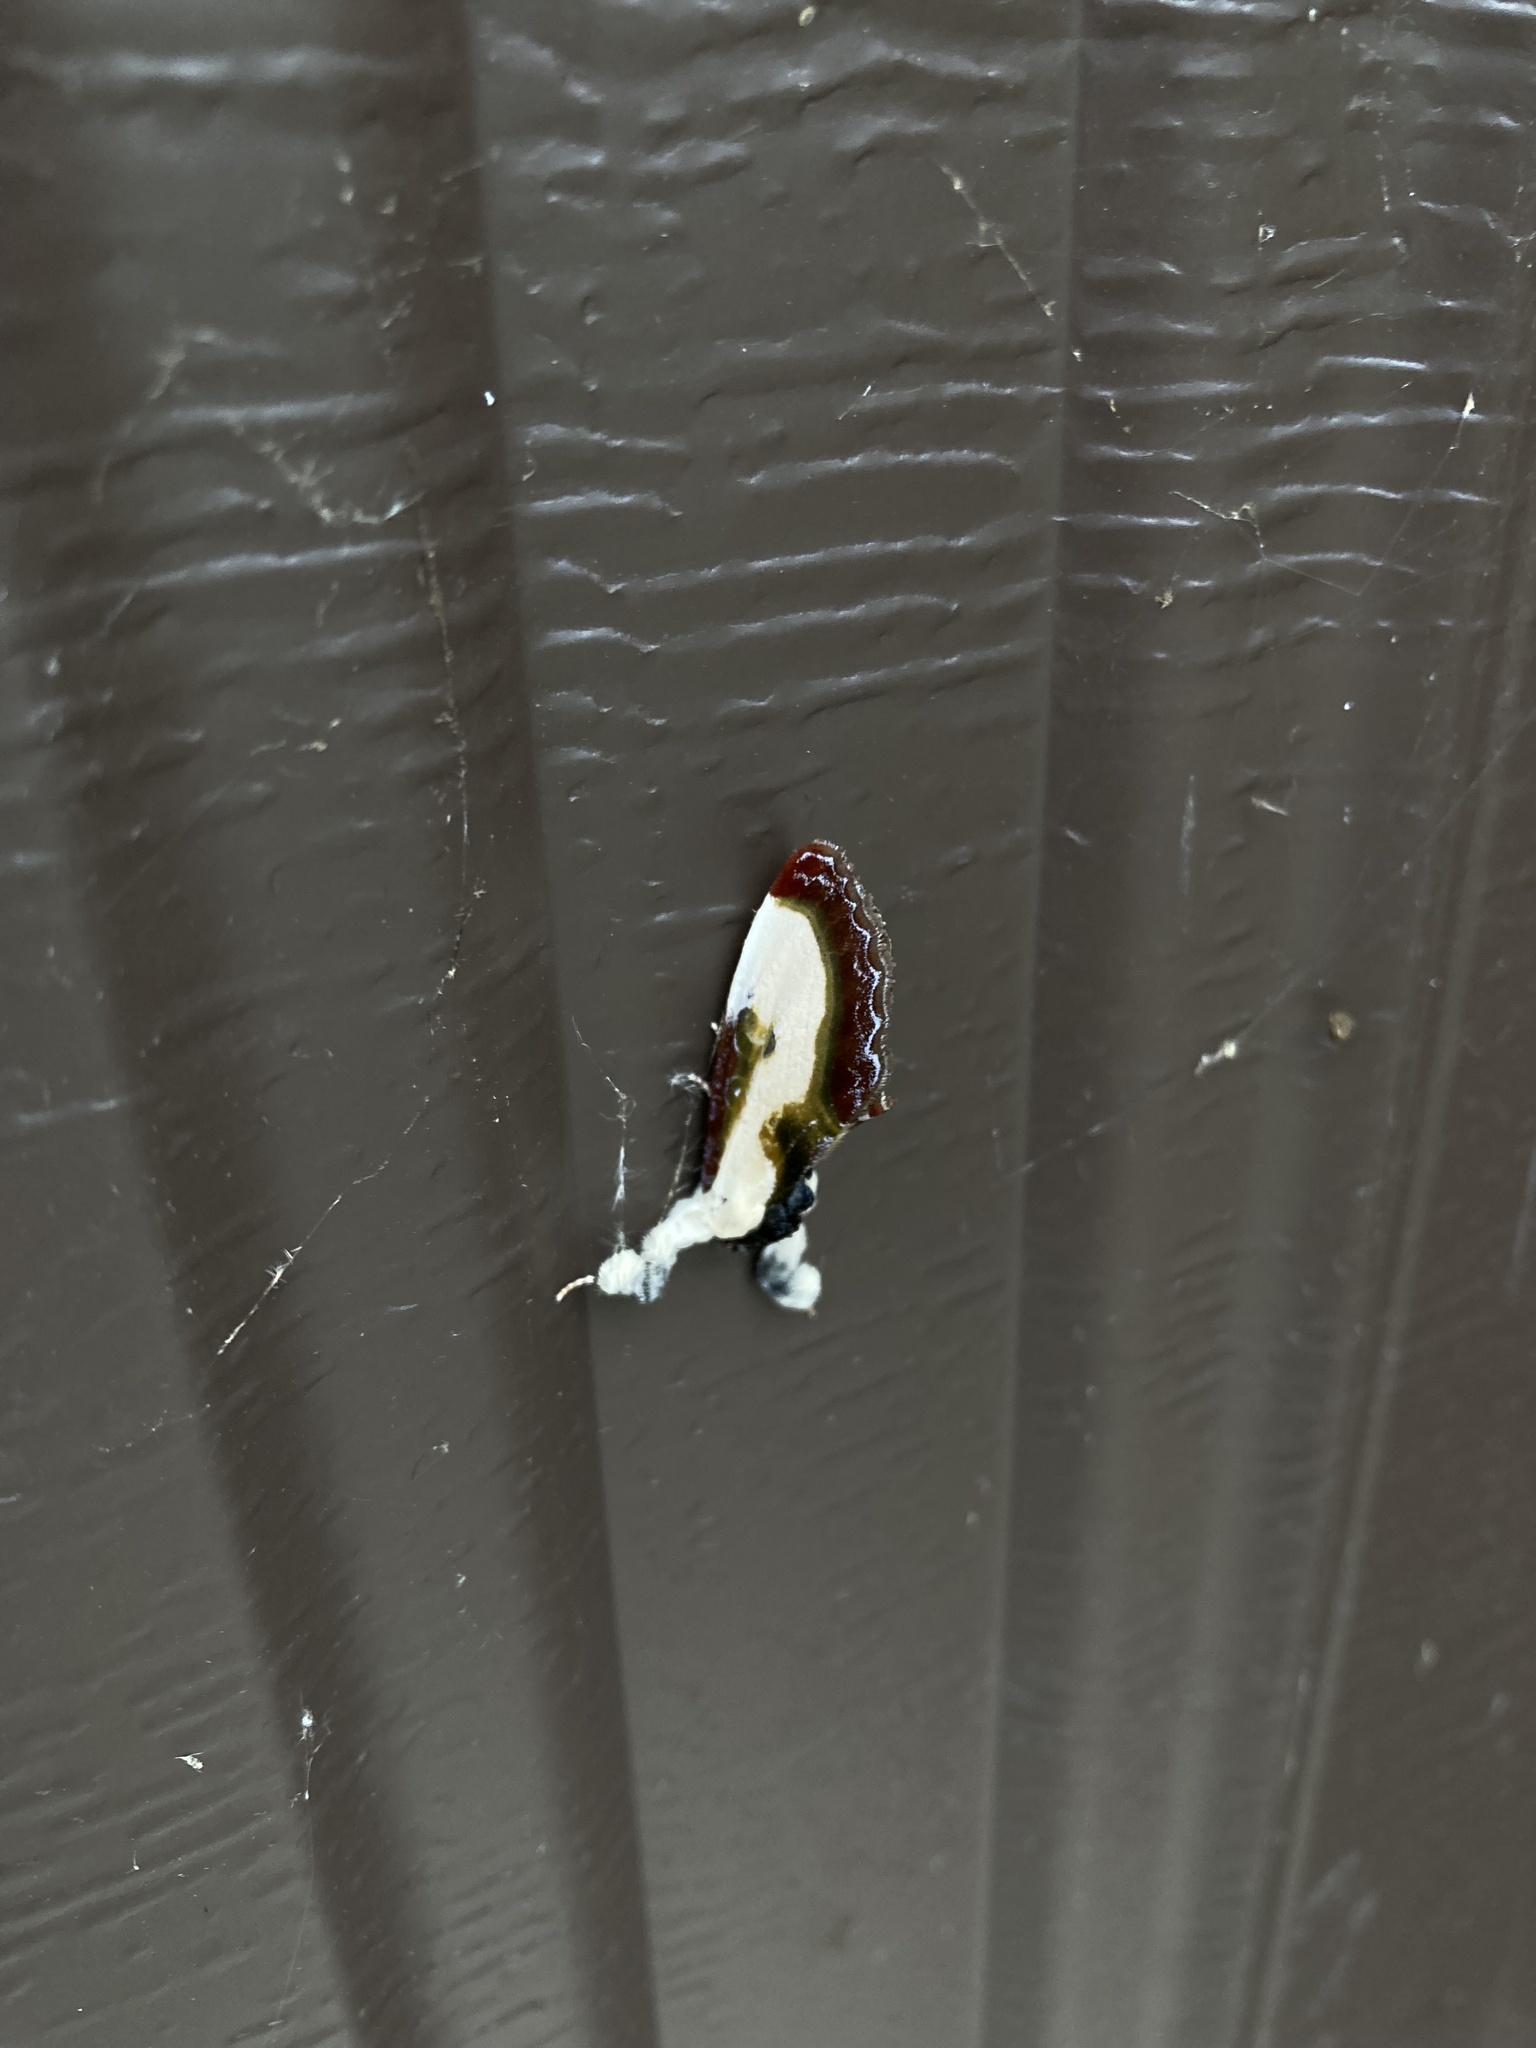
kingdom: Animalia
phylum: Arthropoda
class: Insecta
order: Lepidoptera
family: Noctuidae
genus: Eudryas
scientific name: Eudryas grata
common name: Beautiful wood-nymph
